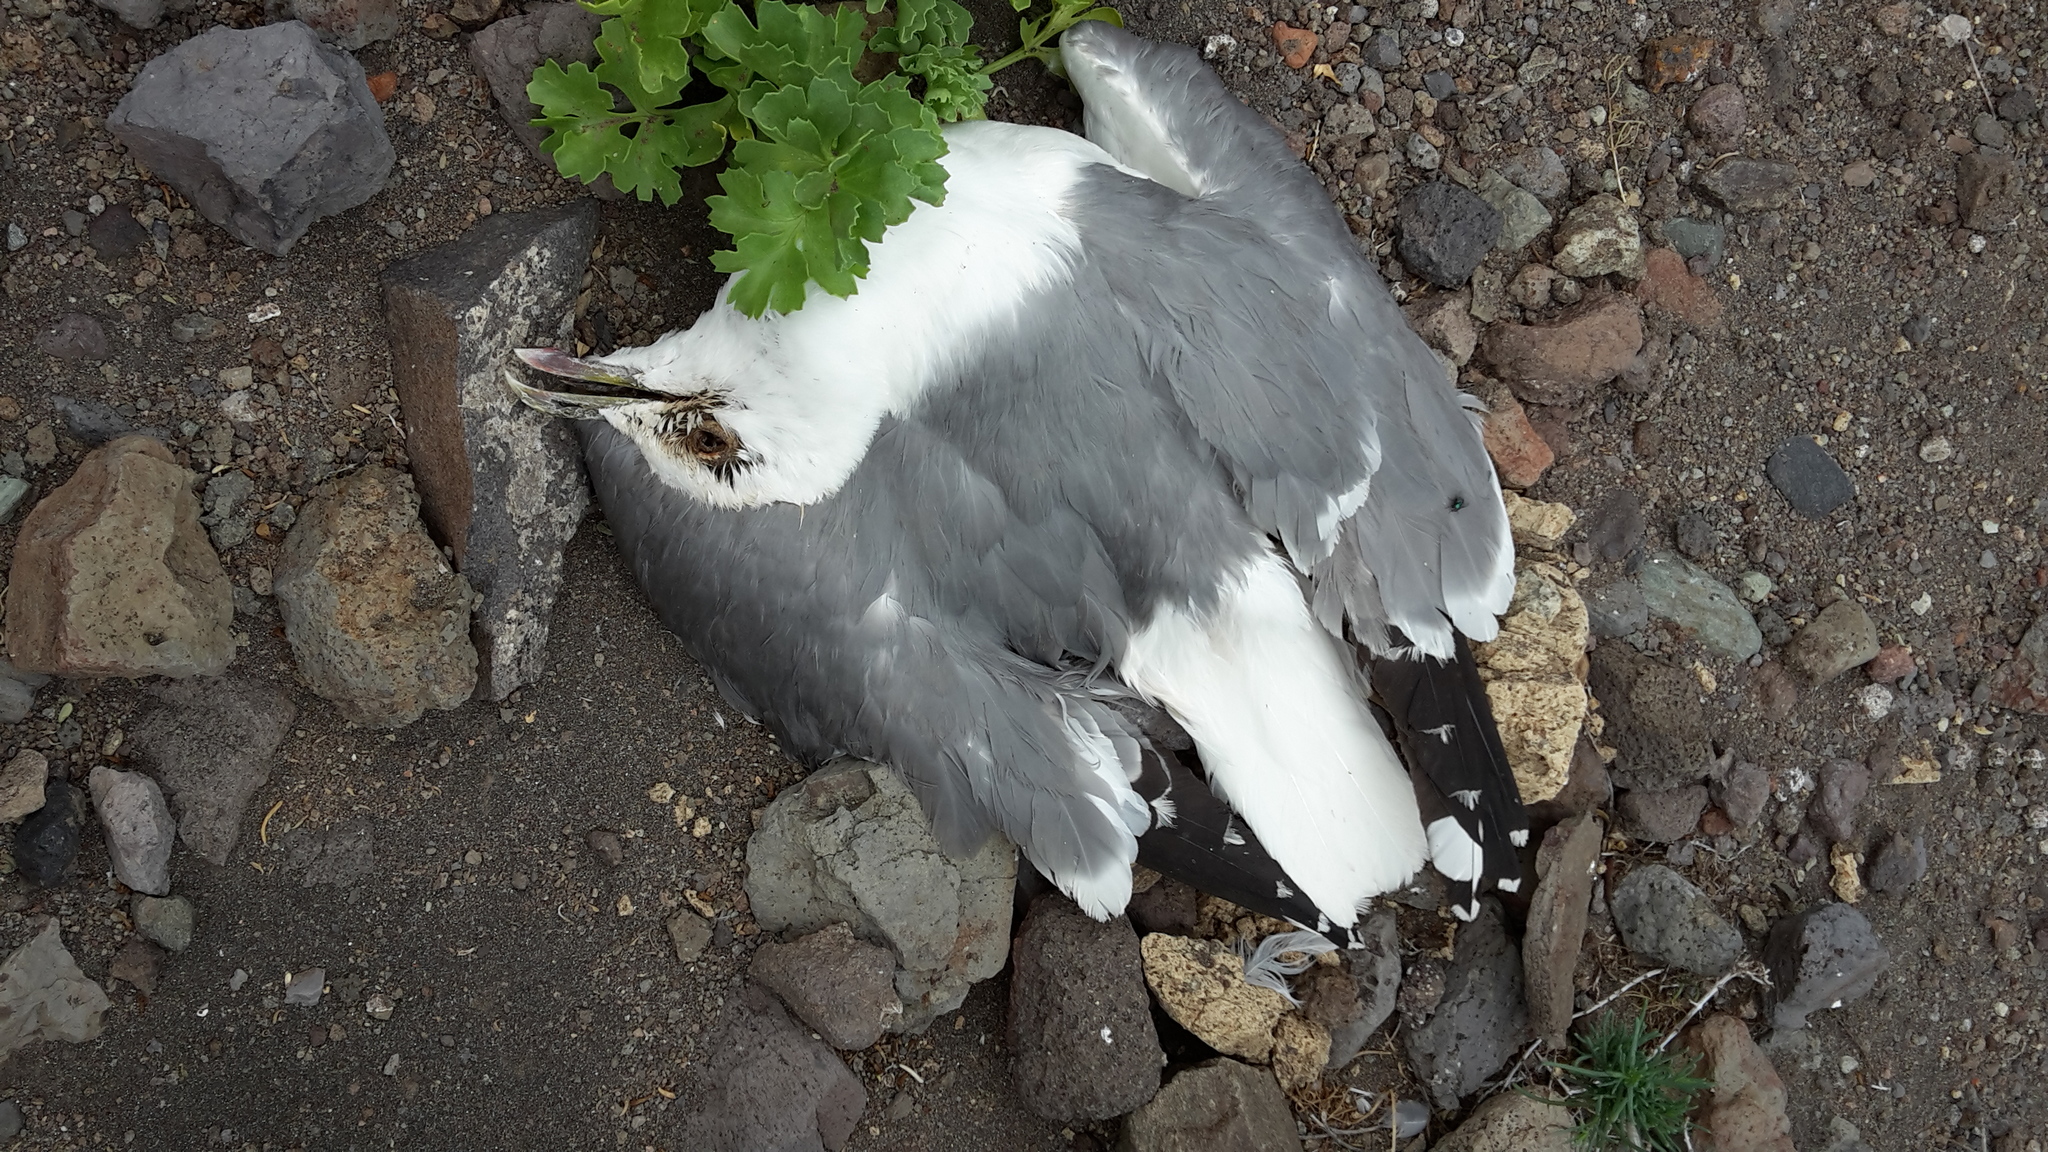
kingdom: Animalia
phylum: Chordata
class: Aves
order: Charadriiformes
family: Laridae
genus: Larus
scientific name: Larus michahellis
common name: Yellow-legged gull
